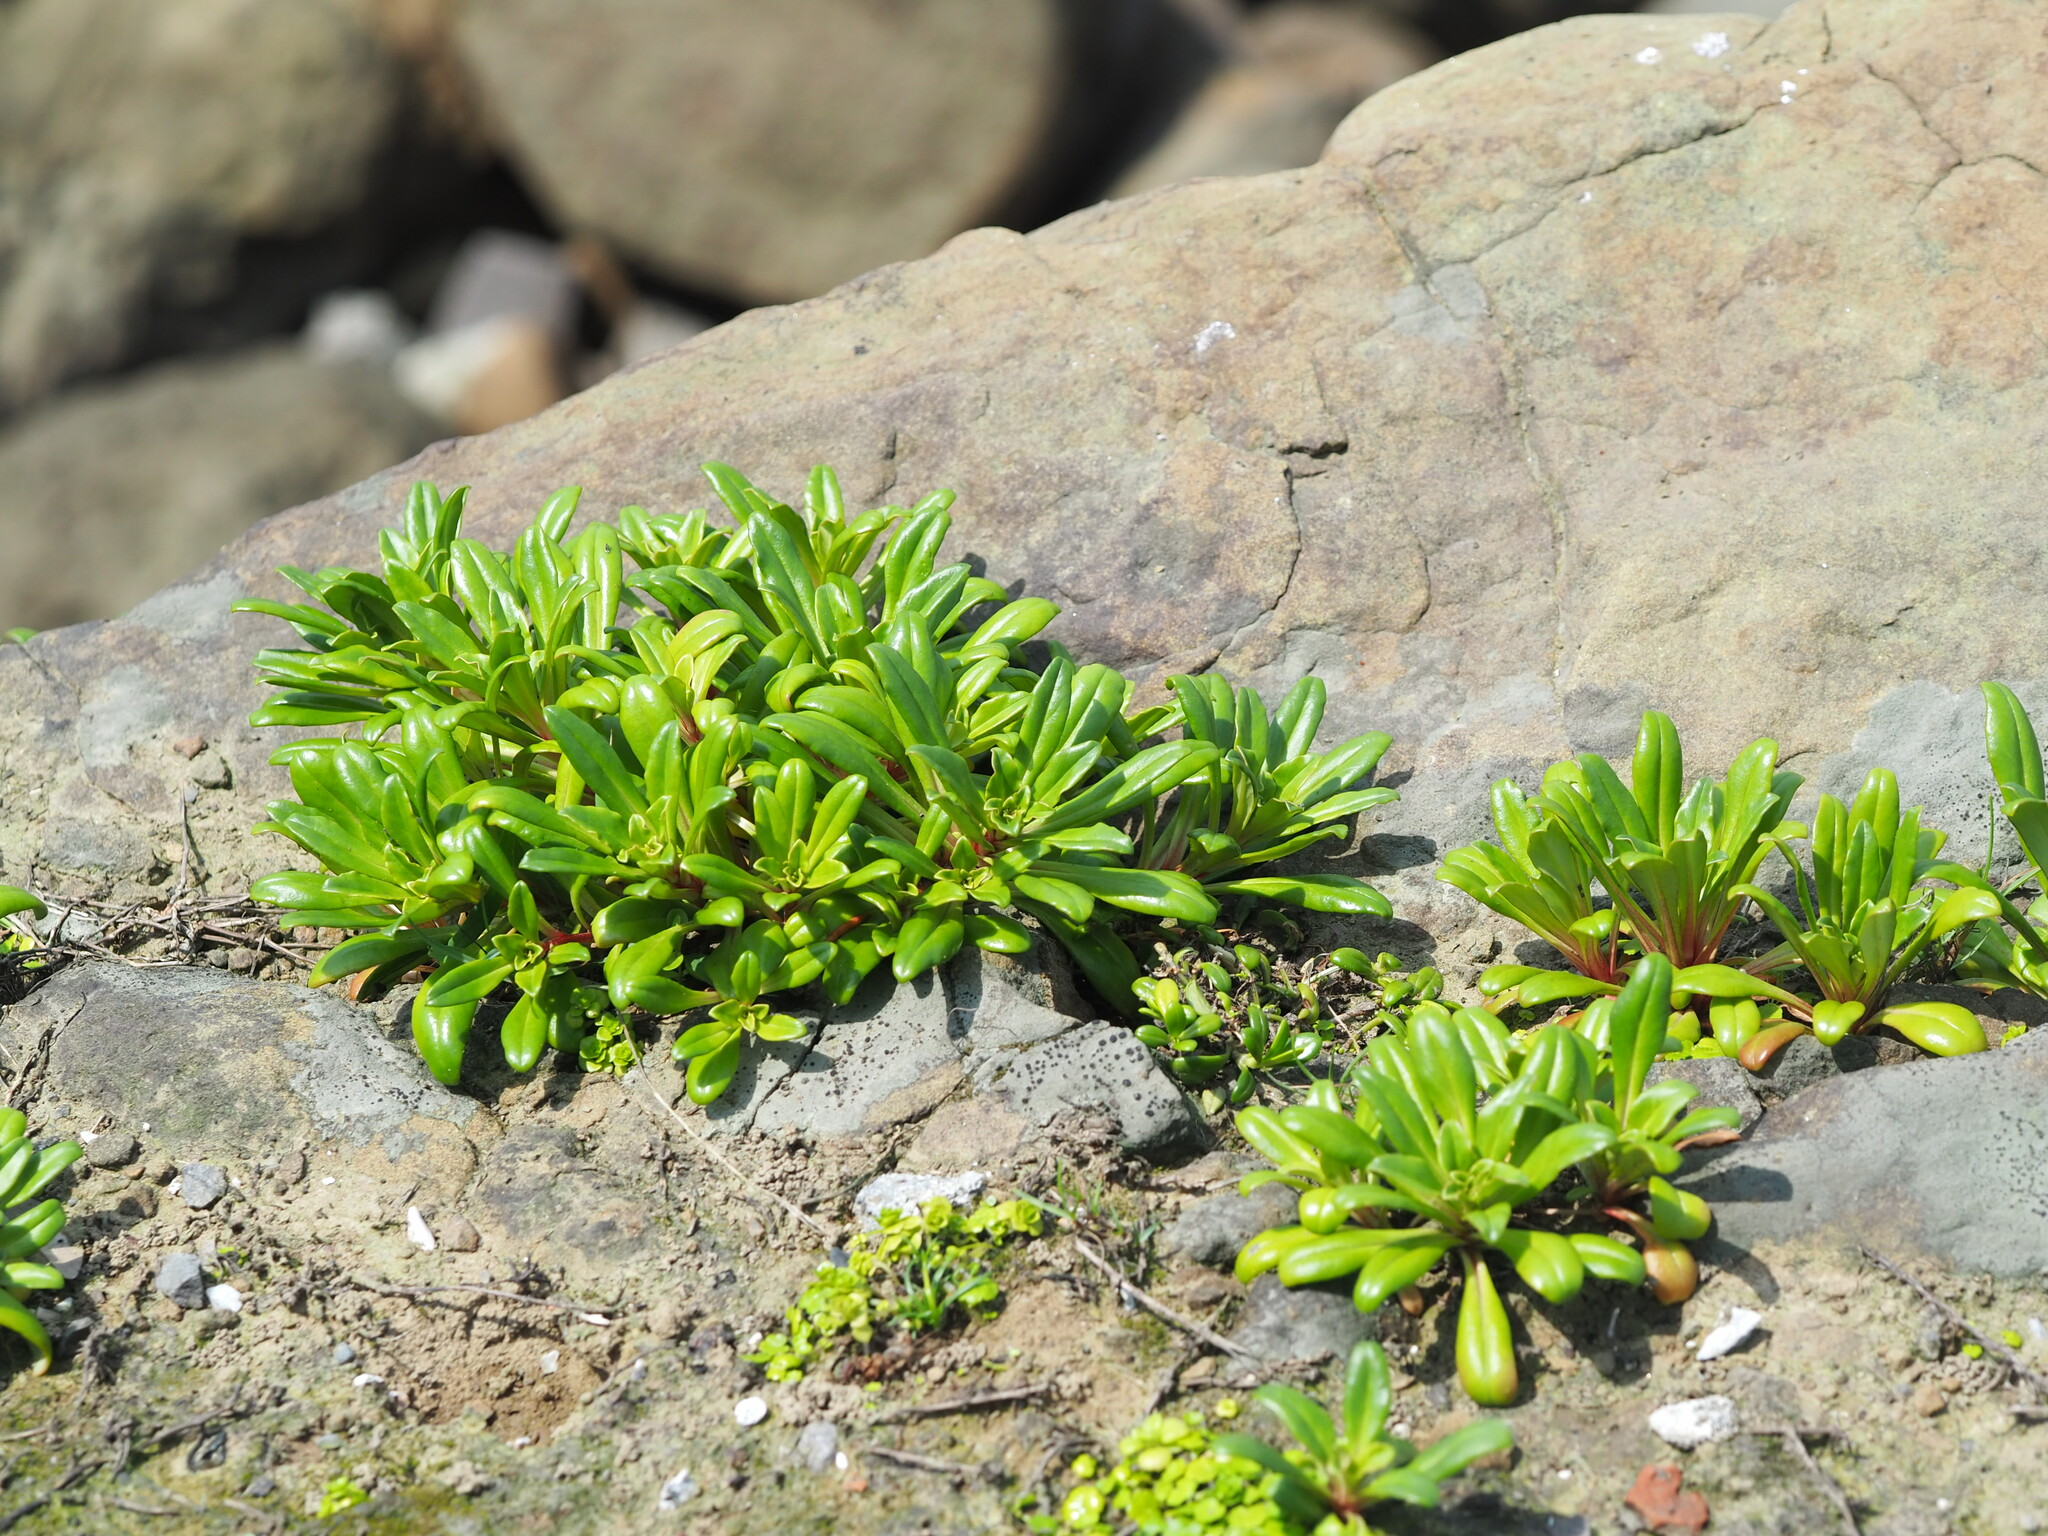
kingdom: Plantae
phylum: Tracheophyta
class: Magnoliopsida
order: Ericales
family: Primulaceae
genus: Lysimachia
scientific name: Lysimachia mauritiana
